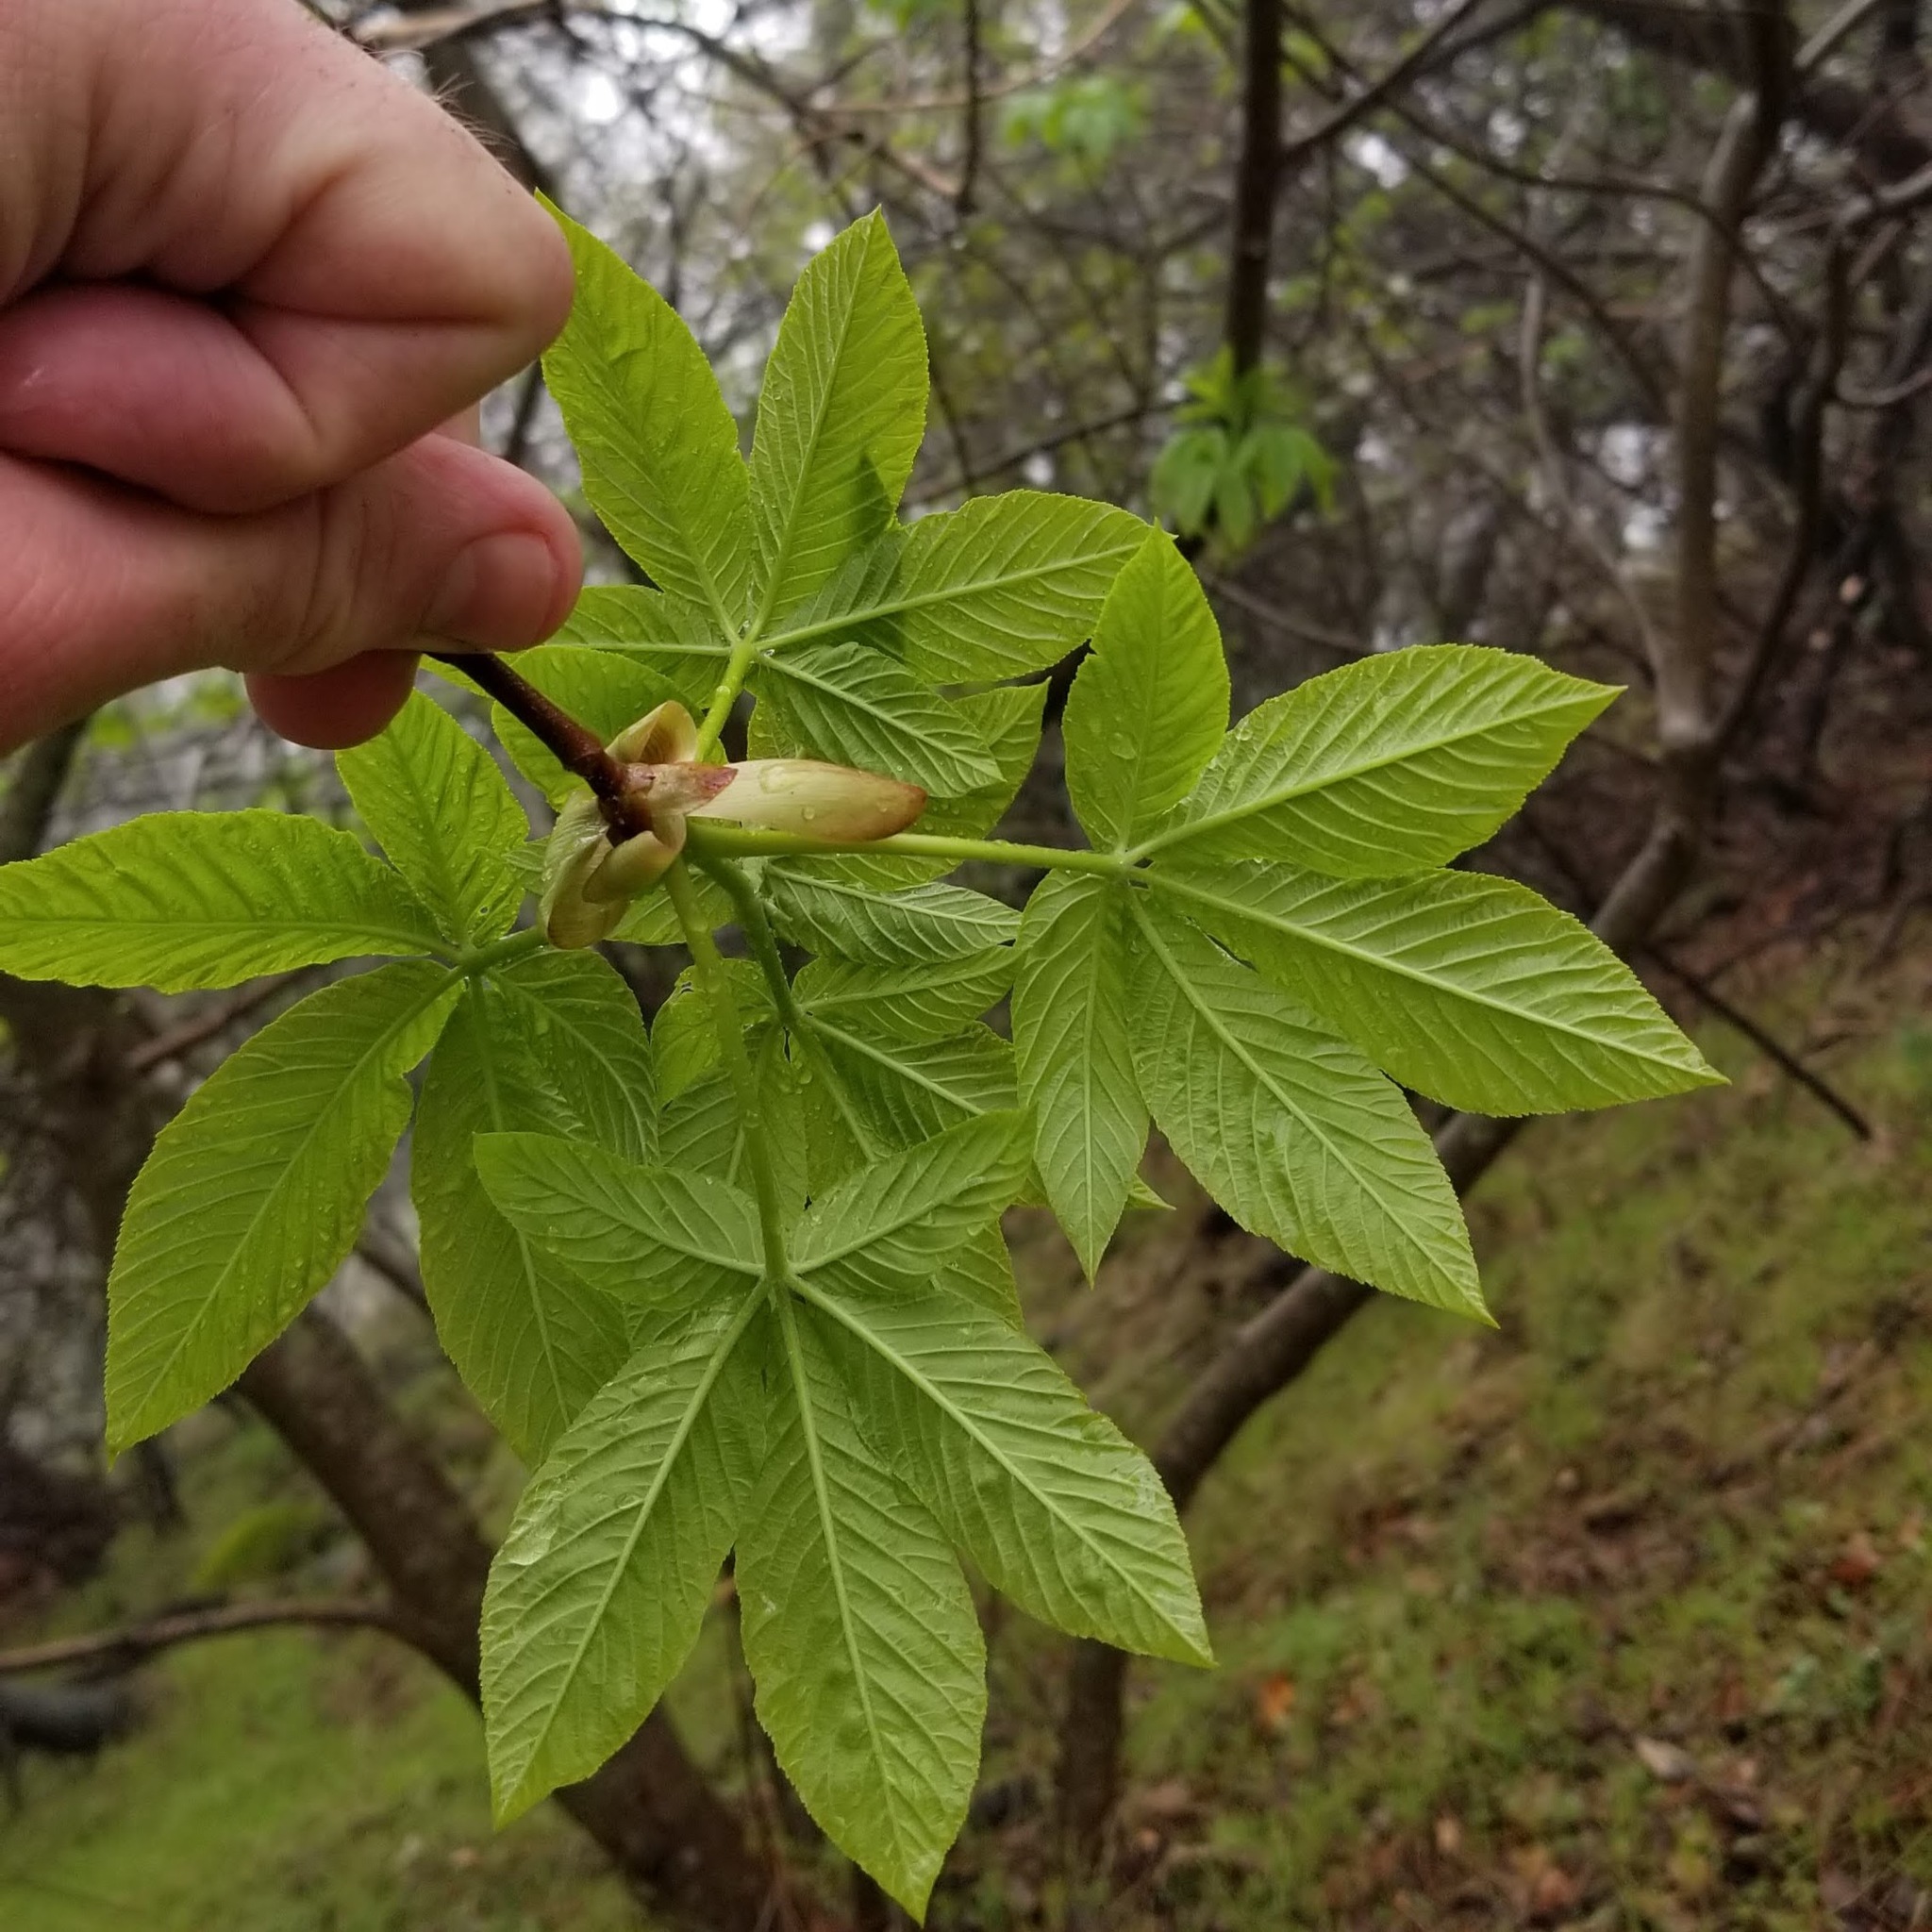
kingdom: Plantae
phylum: Tracheophyta
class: Magnoliopsida
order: Sapindales
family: Sapindaceae
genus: Aesculus
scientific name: Aesculus californica
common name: California buckeye
